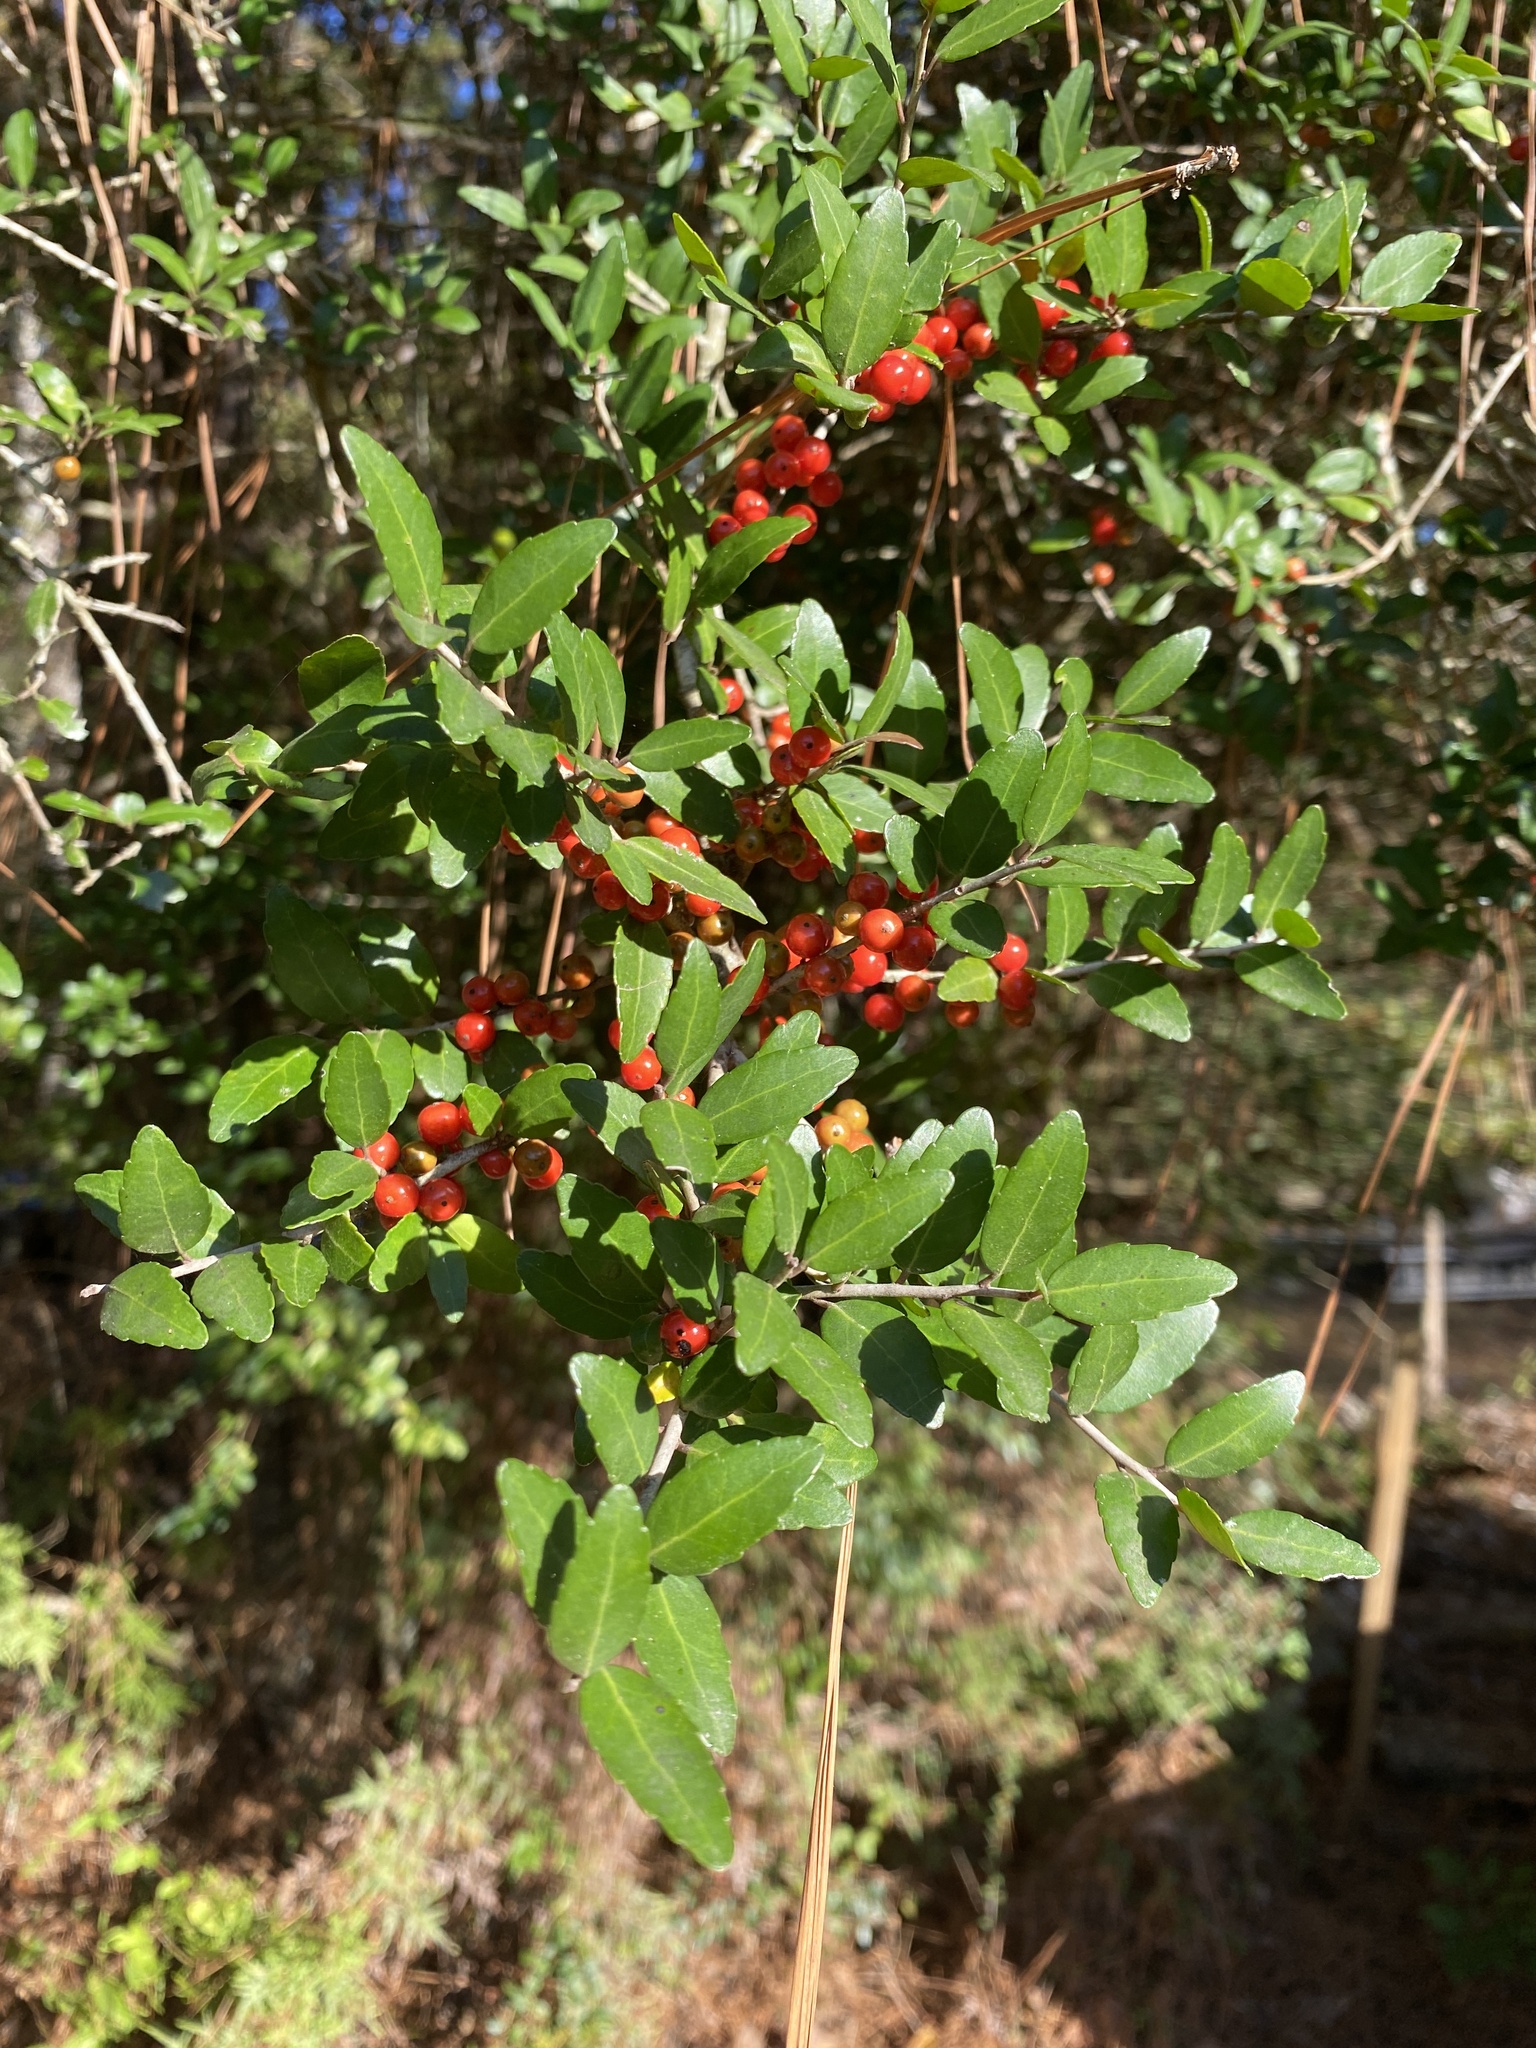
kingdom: Plantae
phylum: Tracheophyta
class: Magnoliopsida
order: Aquifoliales
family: Aquifoliaceae
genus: Ilex
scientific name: Ilex vomitoria
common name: Yaupon holly
